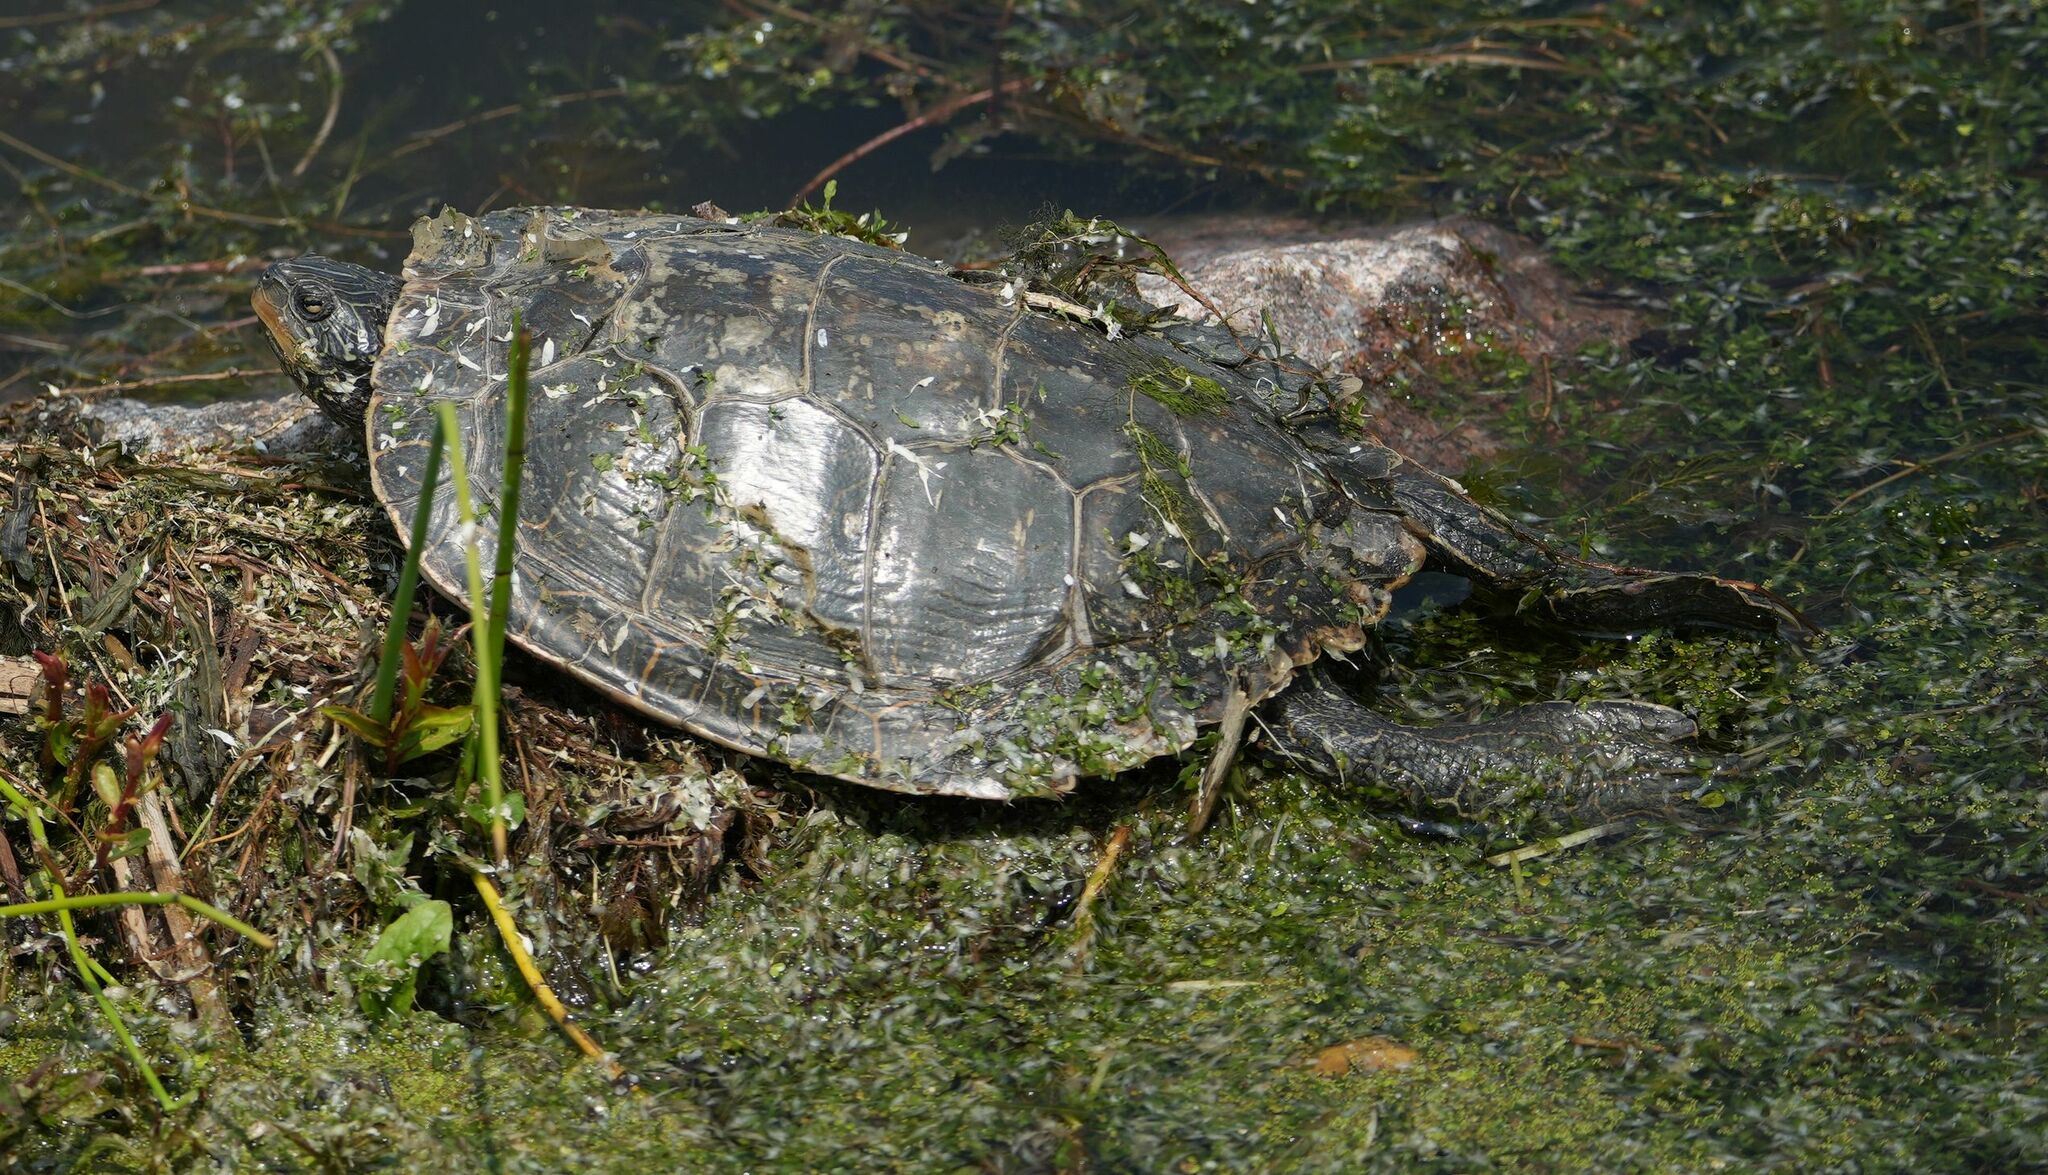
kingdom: Animalia
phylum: Chordata
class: Testudines
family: Emydidae
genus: Graptemys
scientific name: Graptemys geographica
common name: Common map turtle
